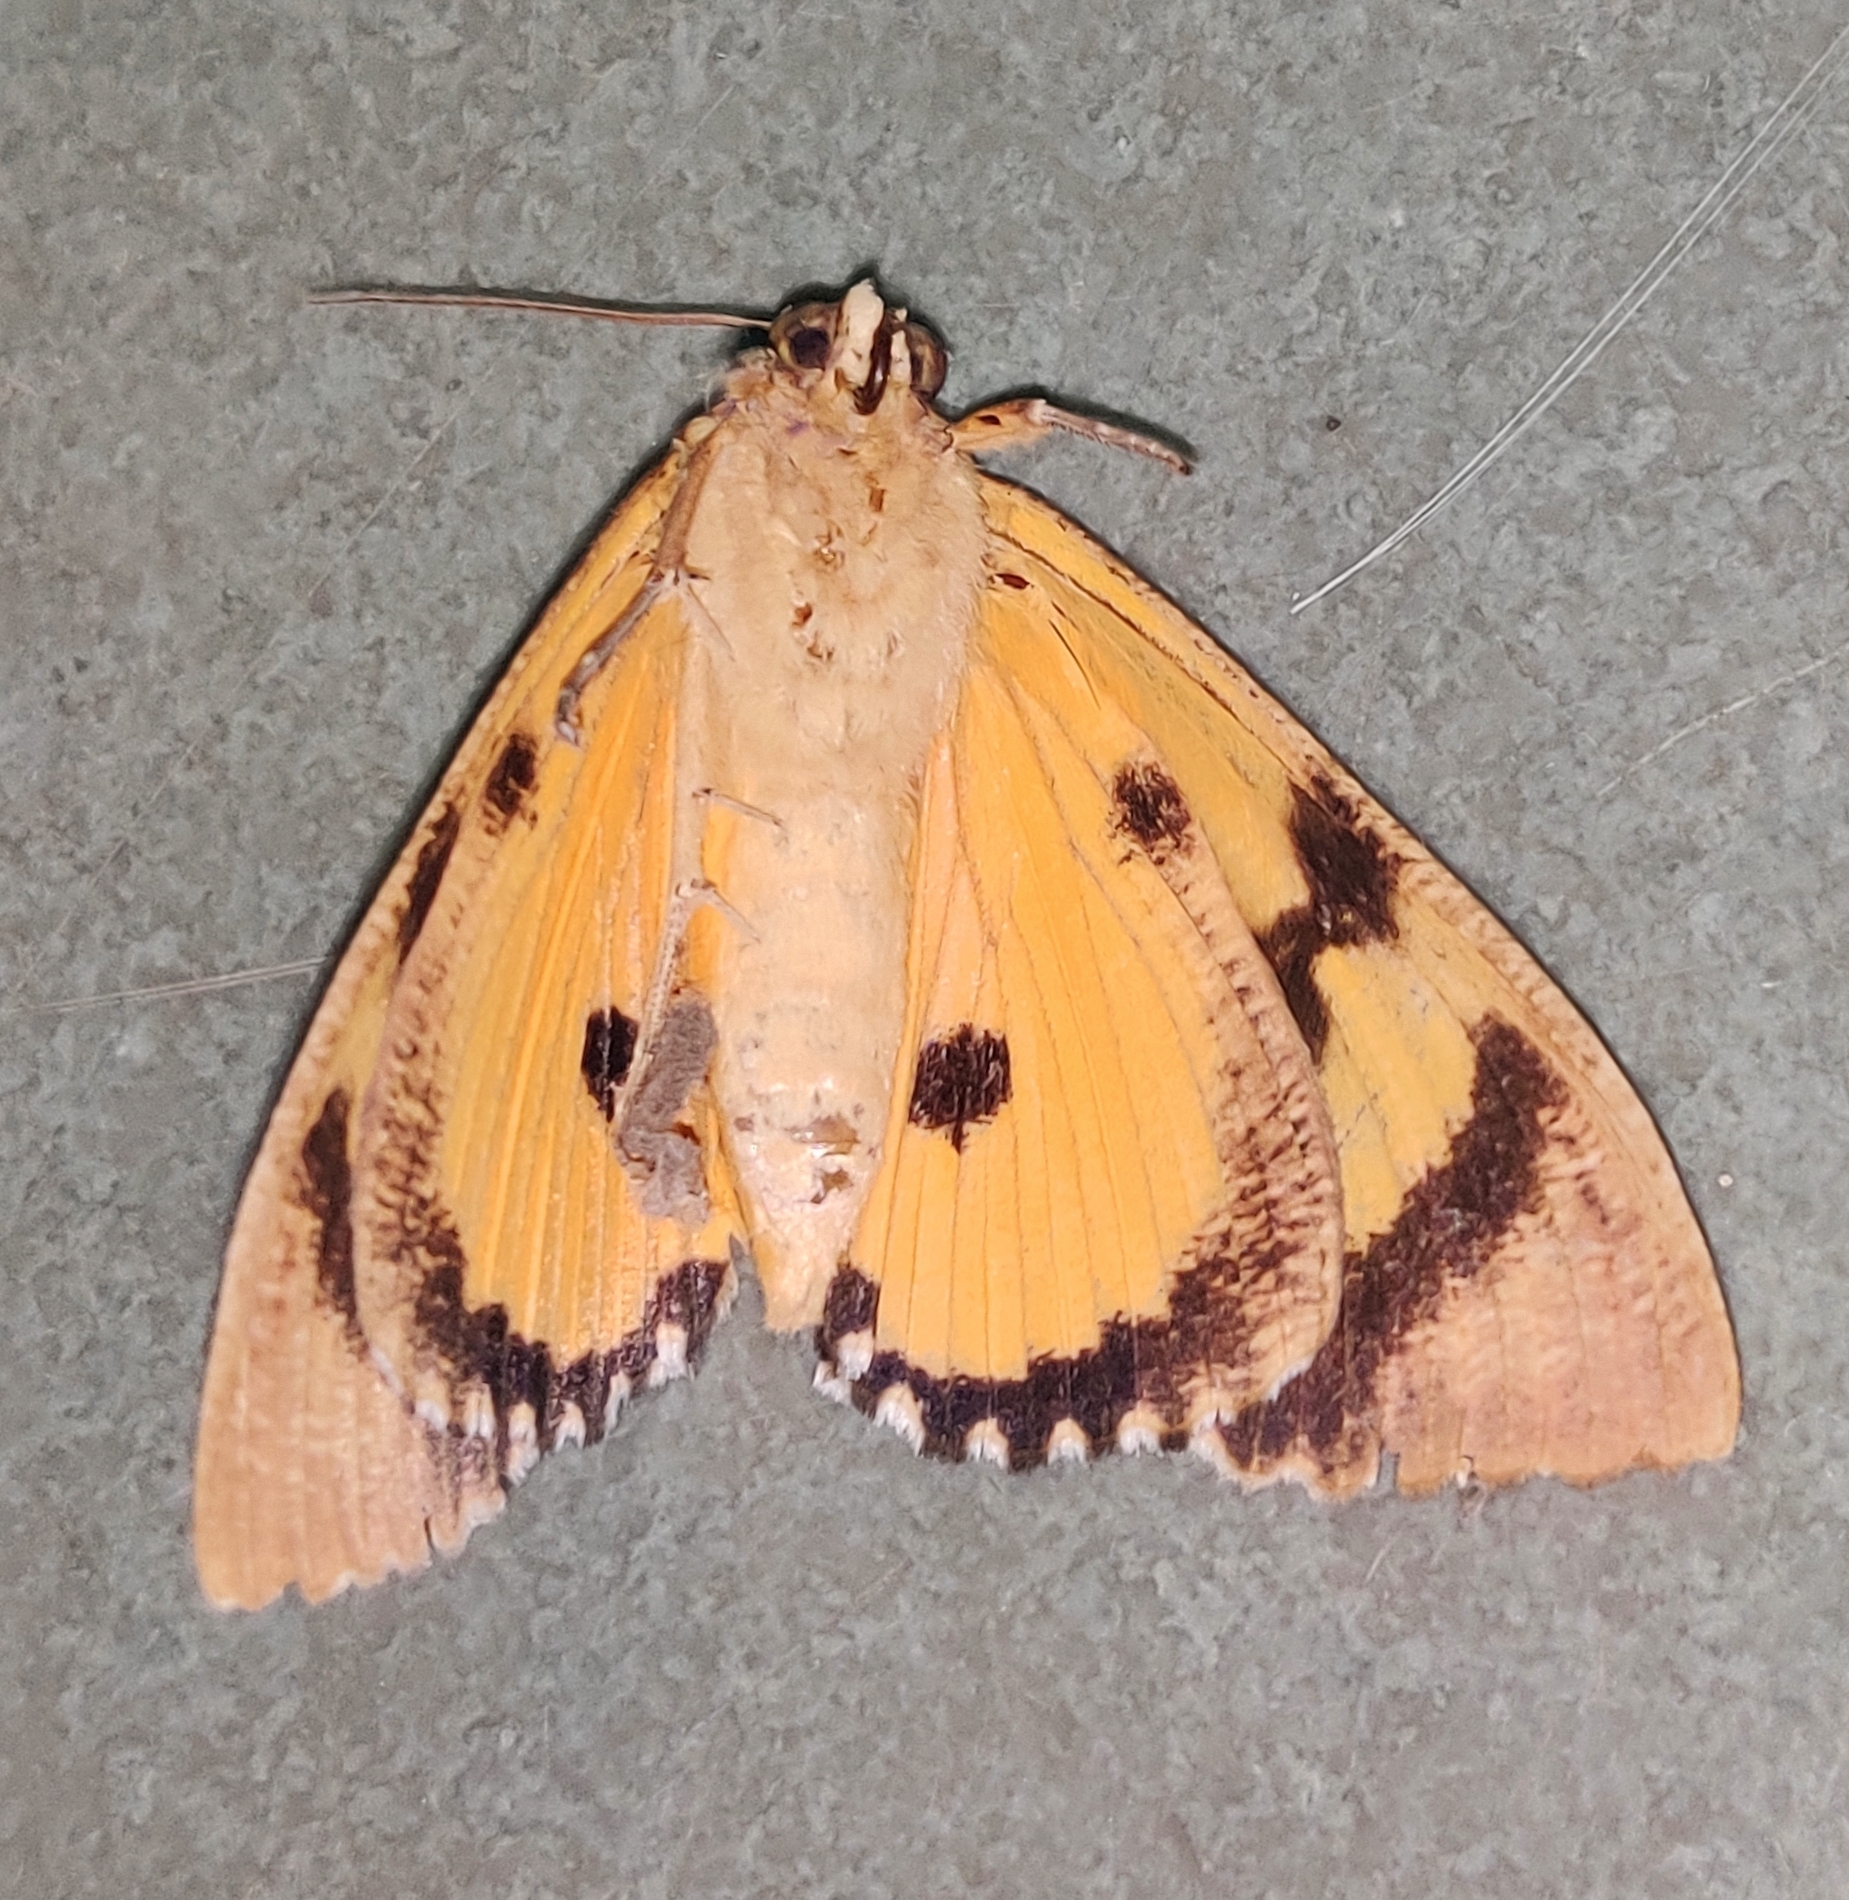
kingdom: Animalia
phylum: Arthropoda
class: Insecta
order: Lepidoptera
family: Erebidae
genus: Eudocima
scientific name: Eudocima materna
